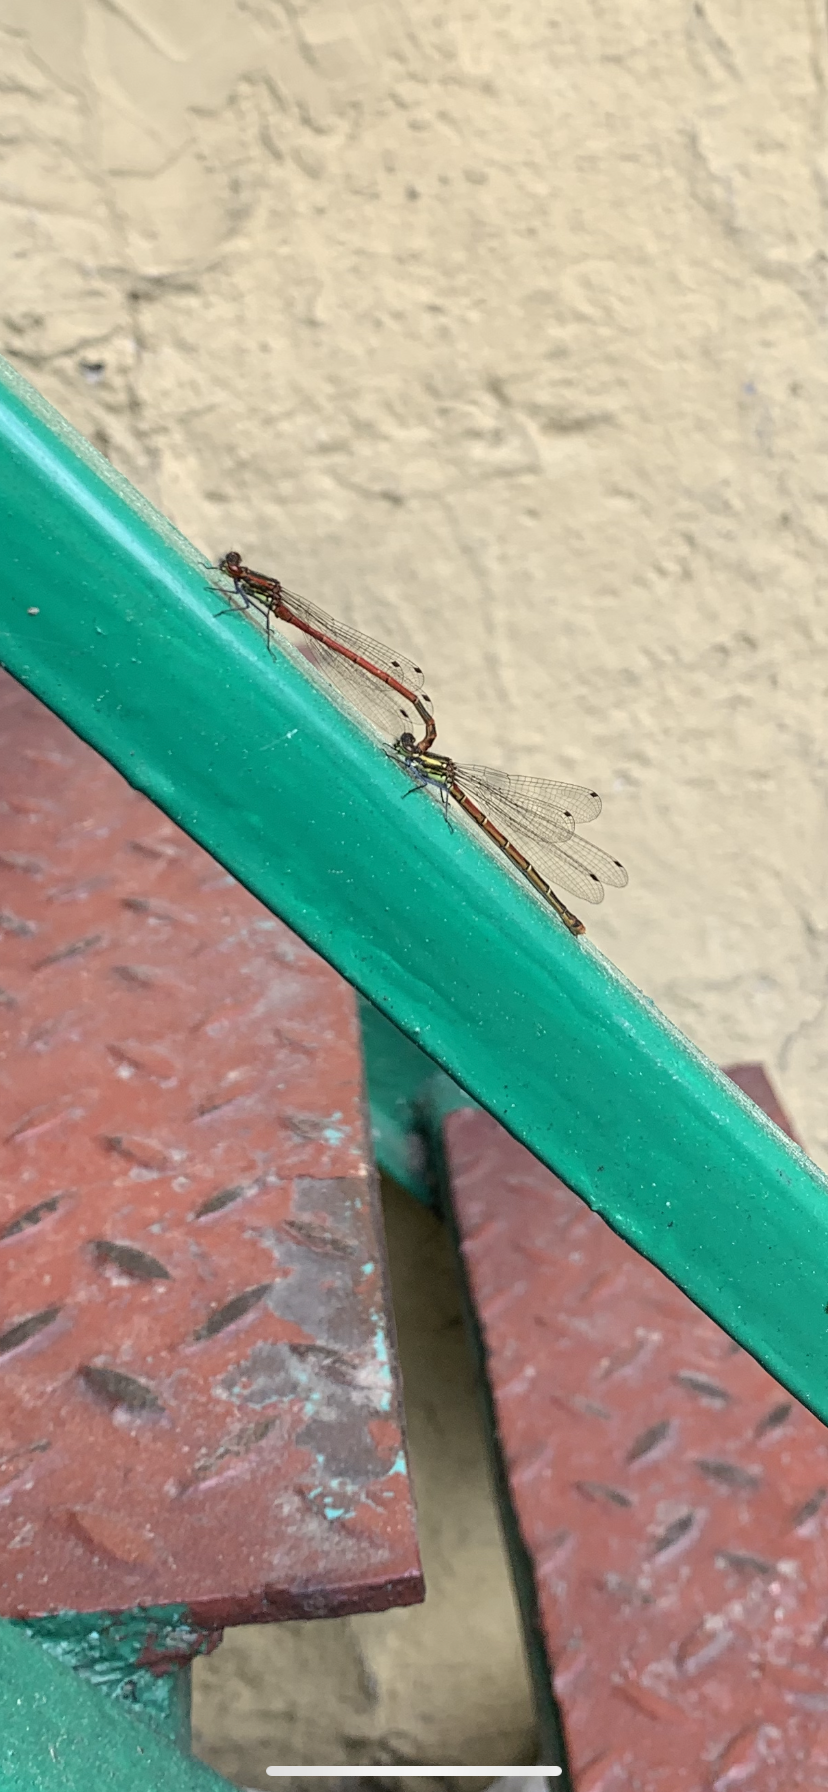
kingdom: Animalia
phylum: Arthropoda
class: Insecta
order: Odonata
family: Coenagrionidae
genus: Pyrrhosoma
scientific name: Pyrrhosoma nymphula
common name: Large red damsel
